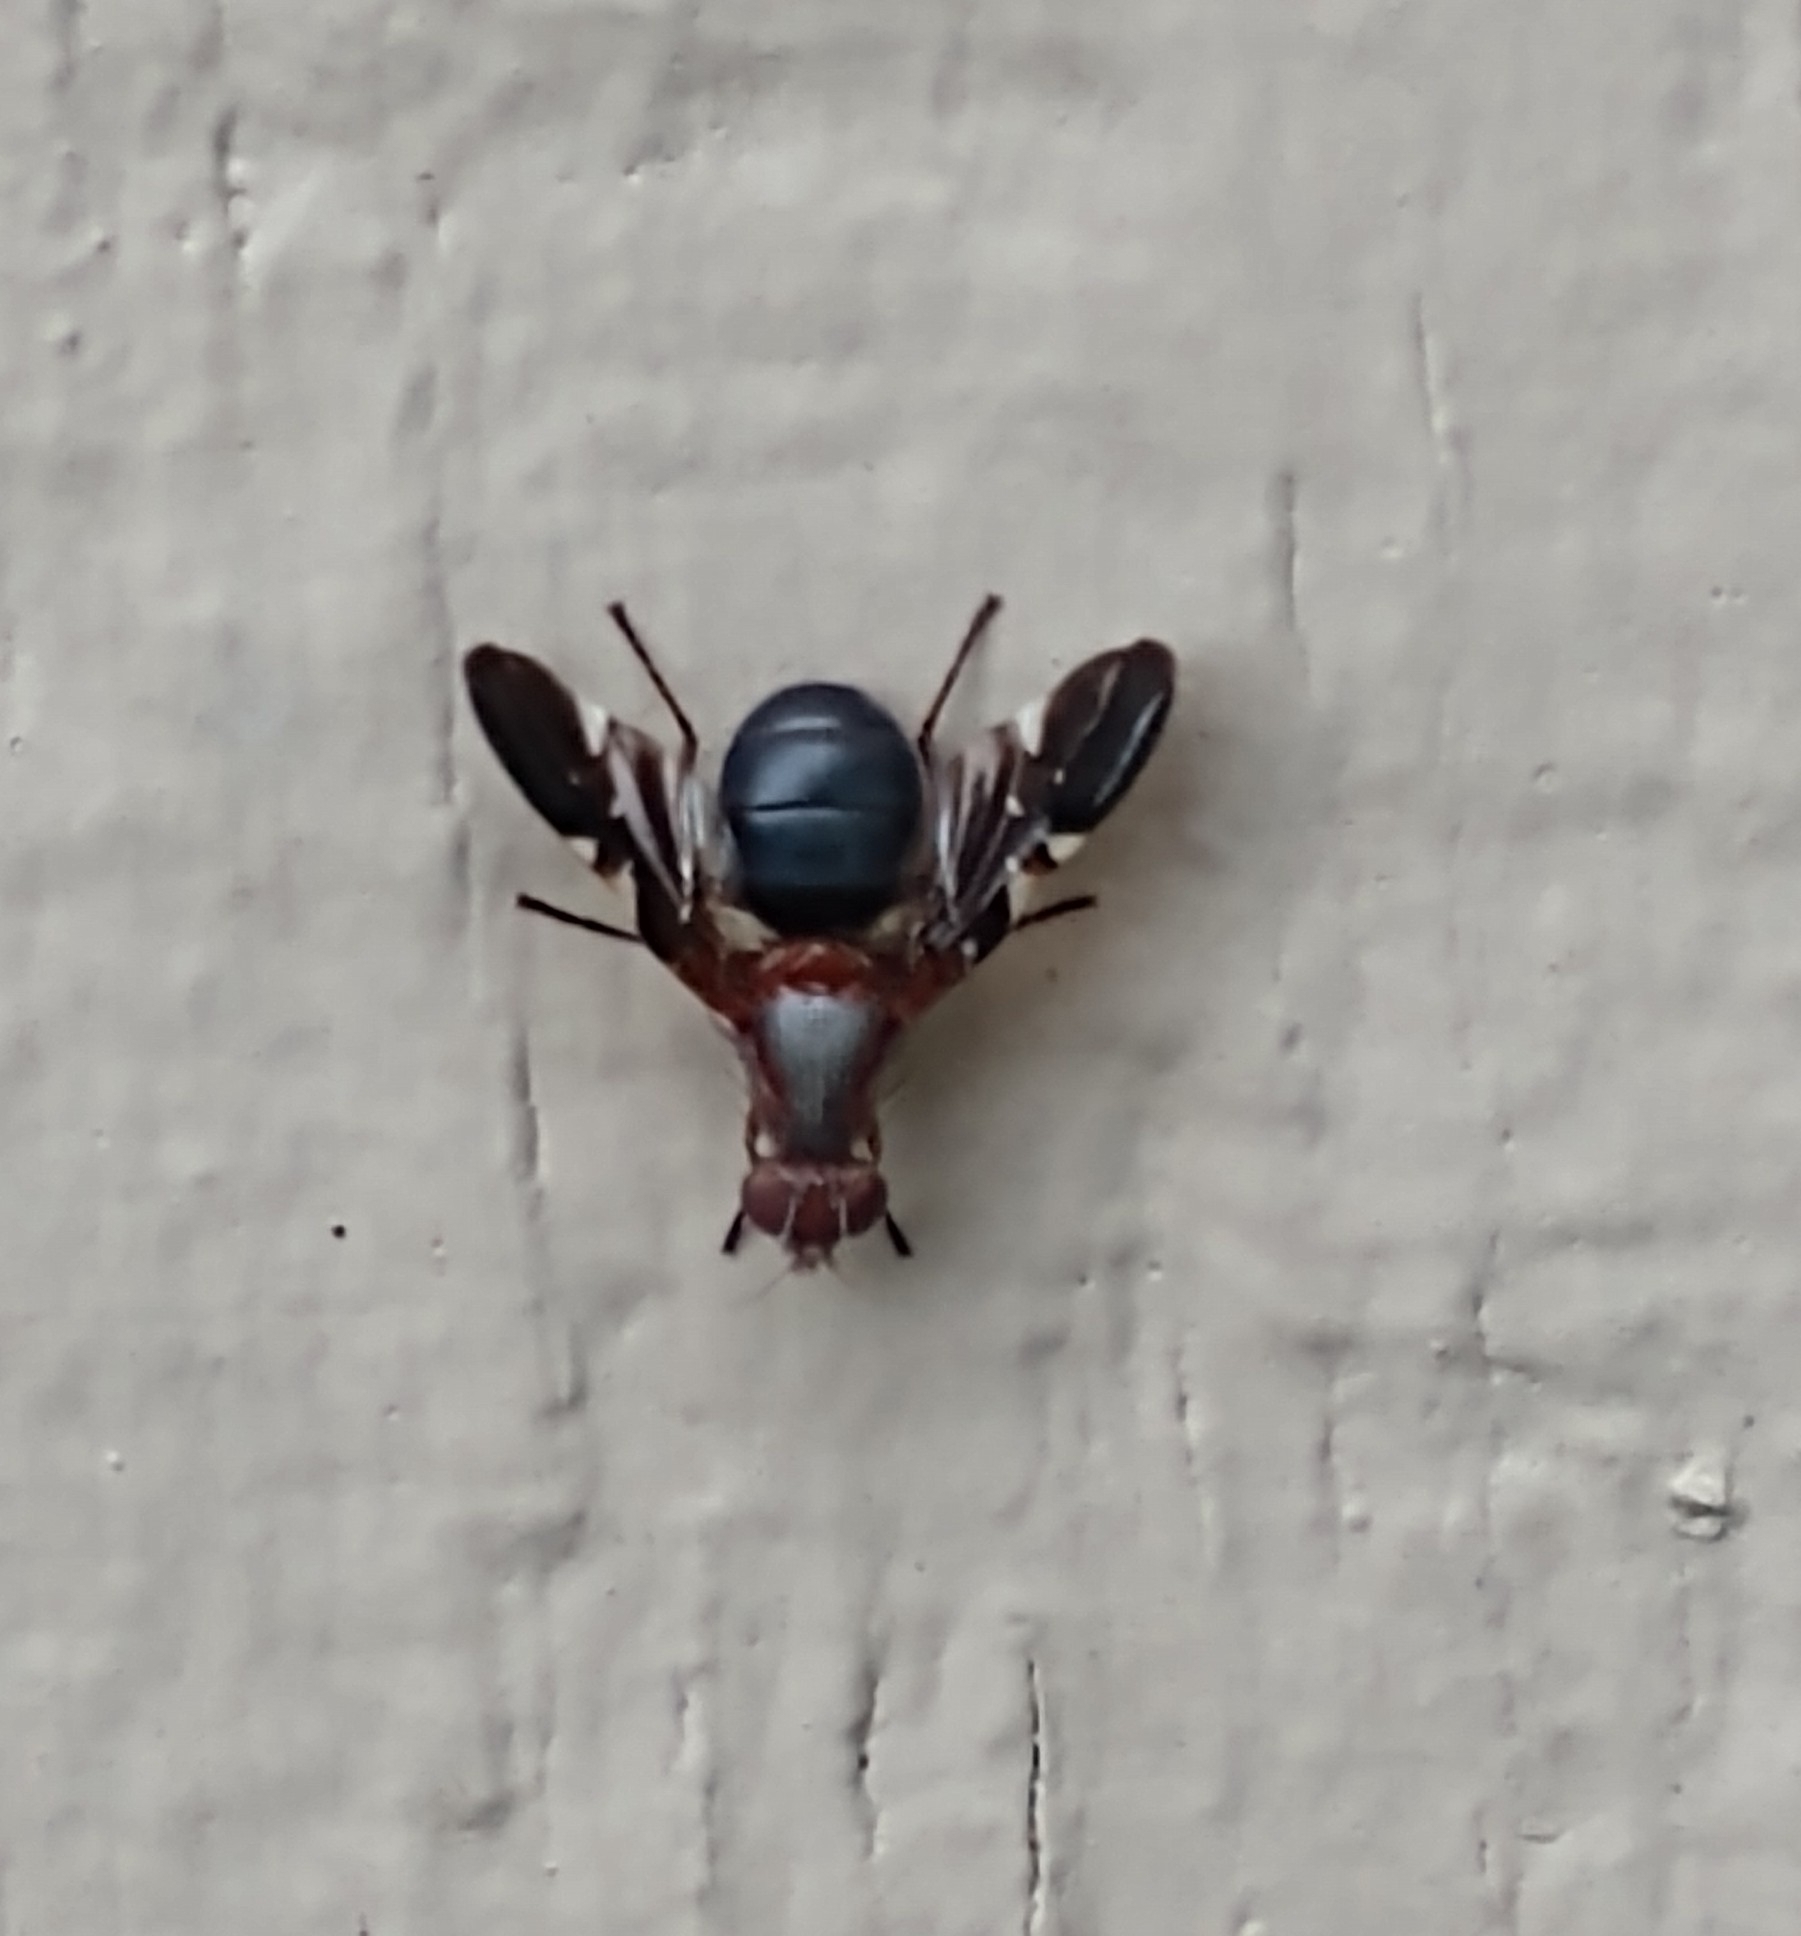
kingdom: Animalia
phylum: Arthropoda
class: Insecta
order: Diptera
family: Ulidiidae
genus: Delphinia
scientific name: Delphinia picta
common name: Common picture-winged fly
